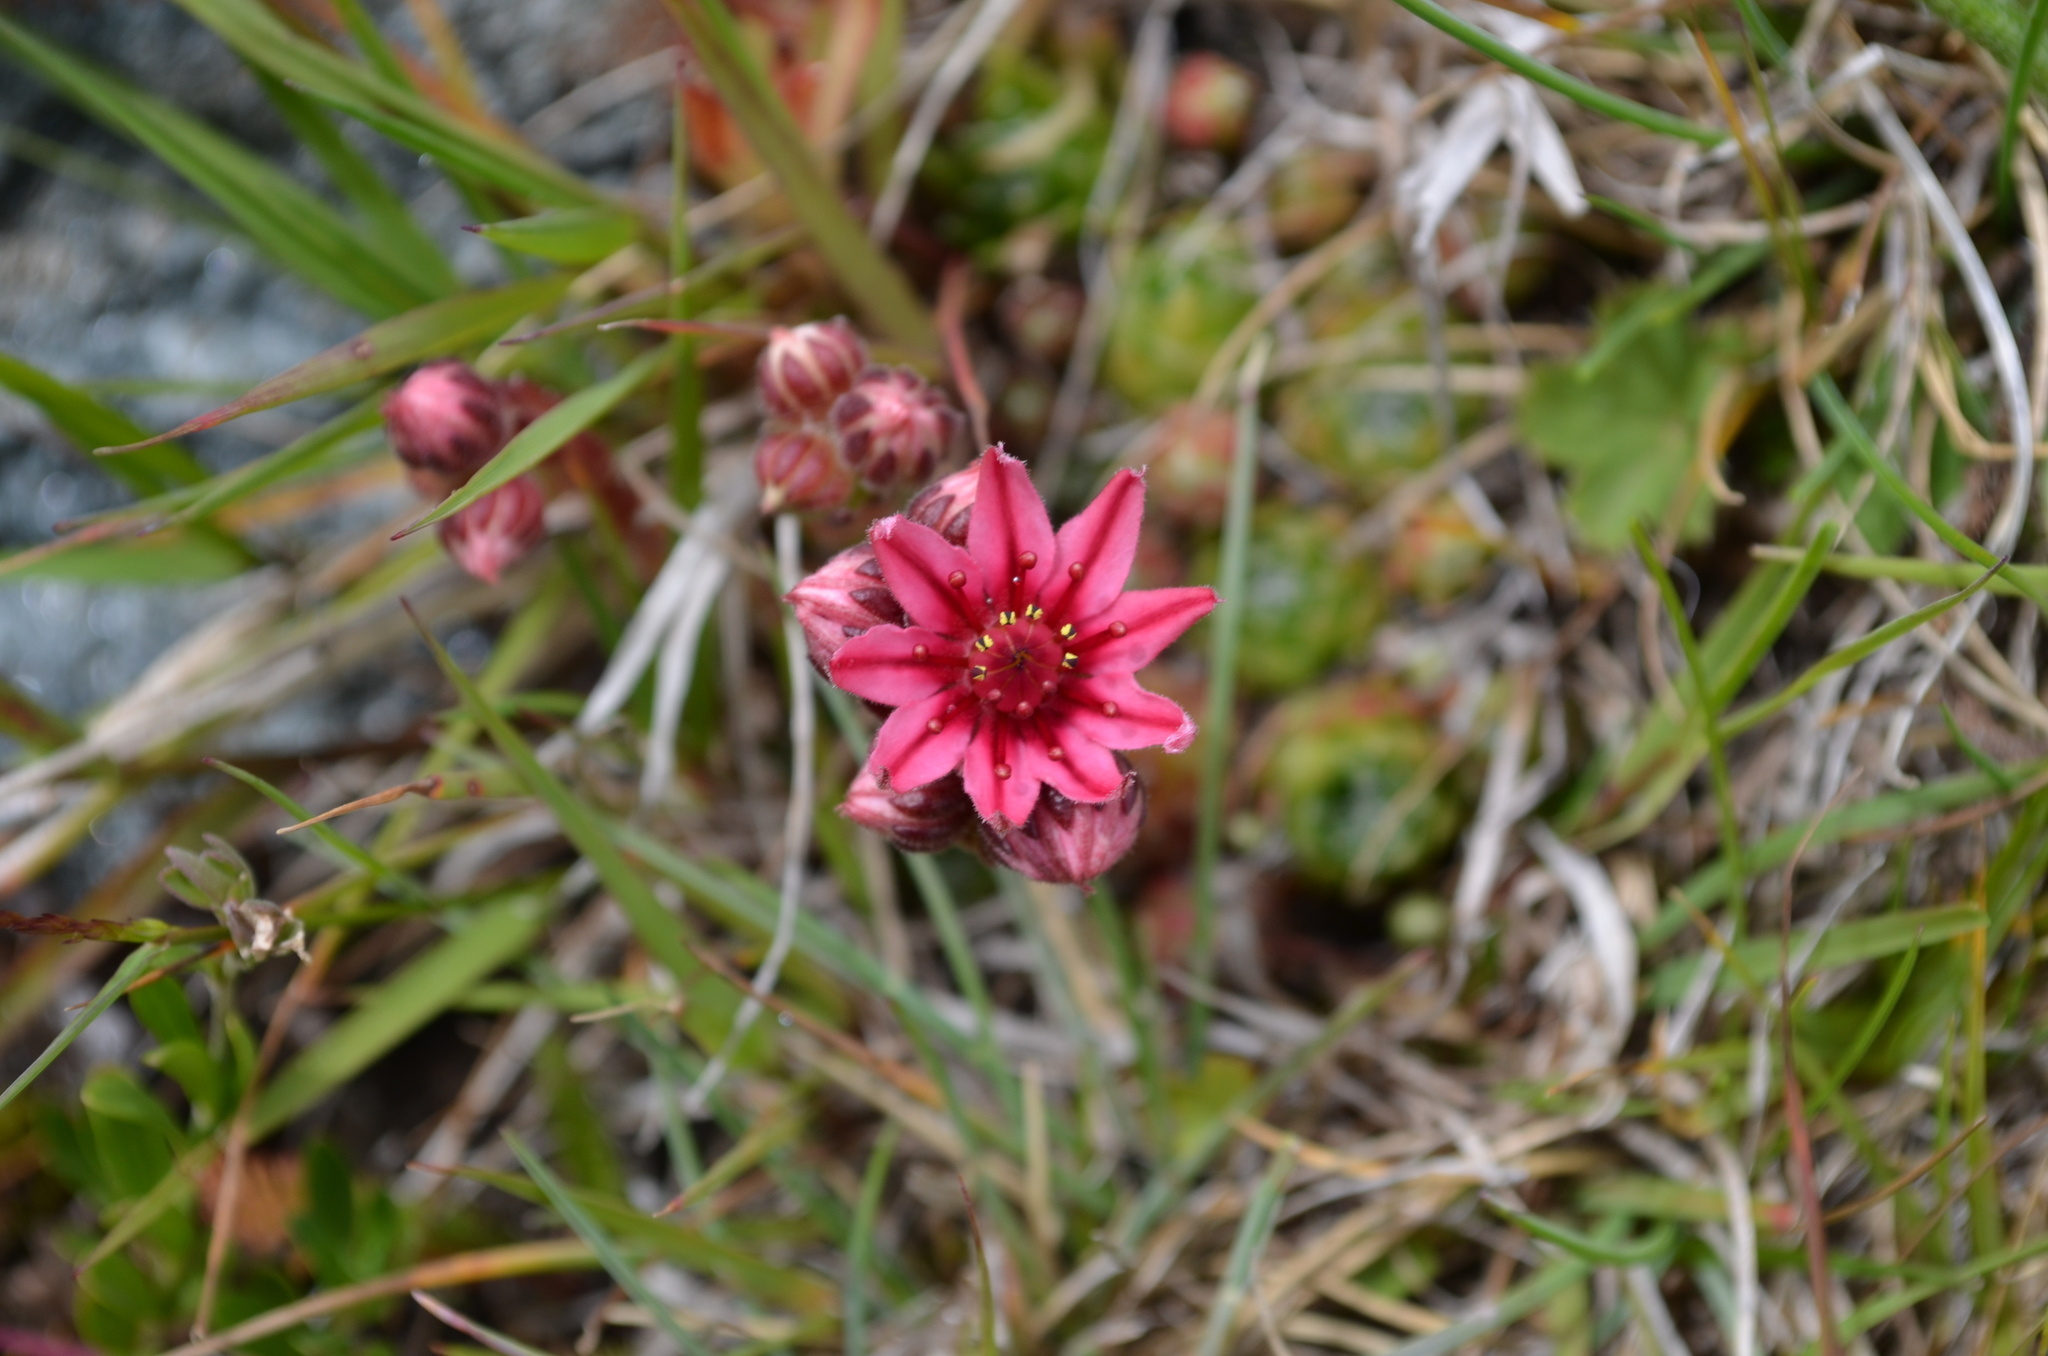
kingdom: Plantae
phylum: Tracheophyta
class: Magnoliopsida
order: Saxifragales
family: Crassulaceae
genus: Sempervivum
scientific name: Sempervivum arachnoideum
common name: Cobweb house-leek
